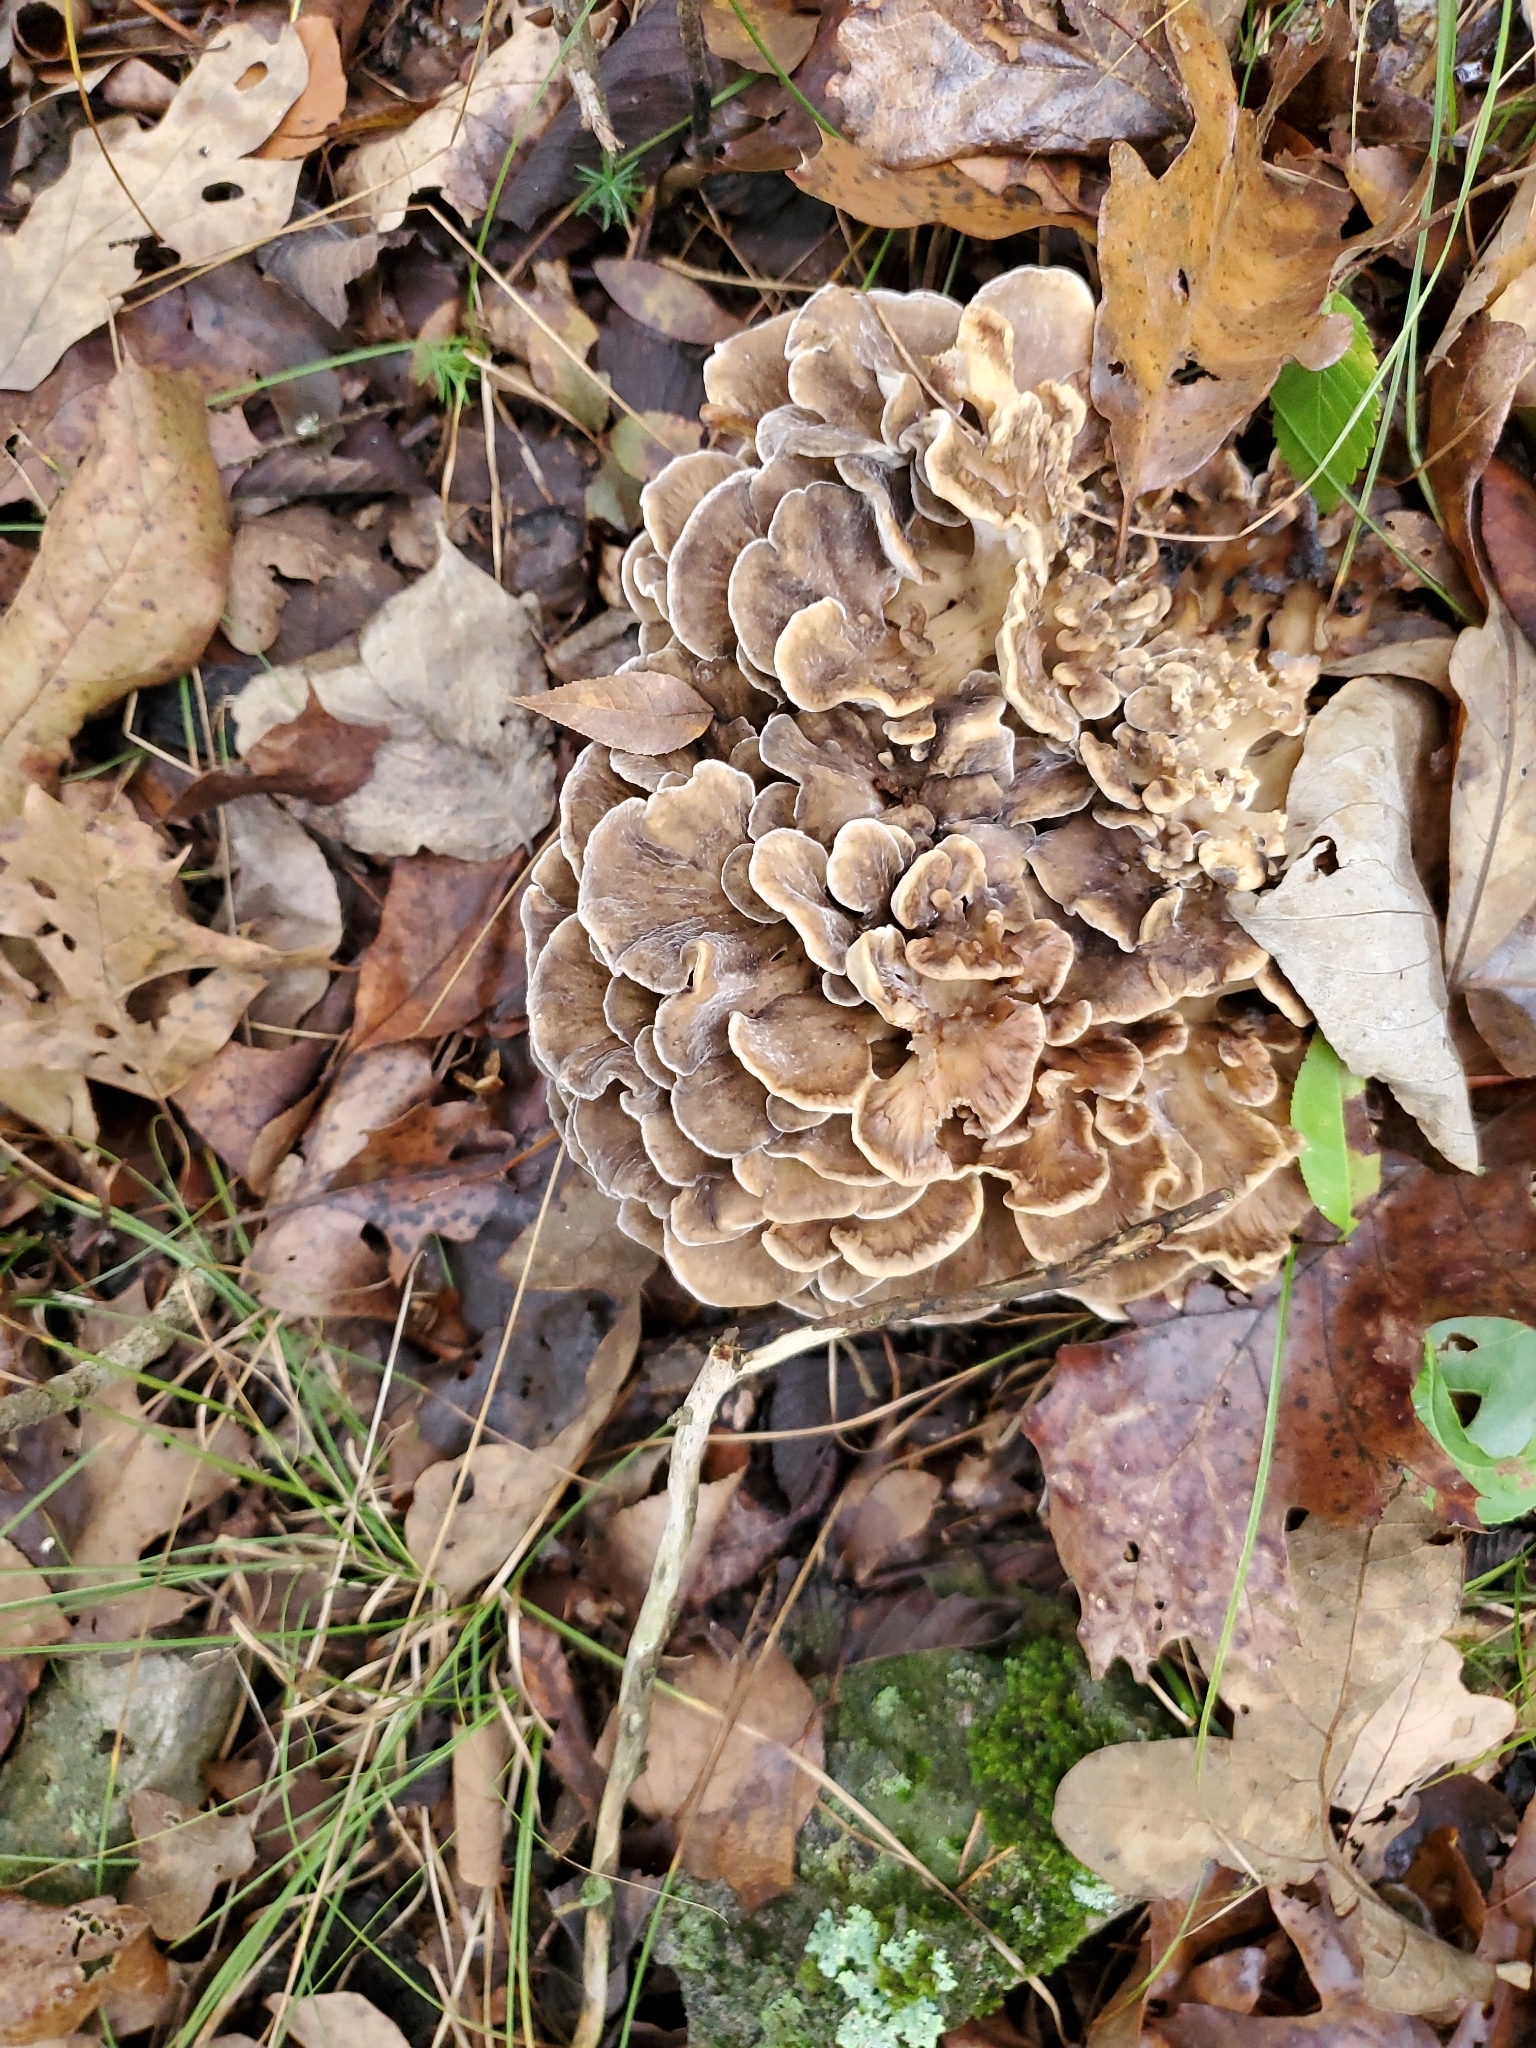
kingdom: Fungi
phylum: Basidiomycota
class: Agaricomycetes
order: Polyporales
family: Grifolaceae
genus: Grifola
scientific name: Grifola frondosa
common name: Hen of the woods
